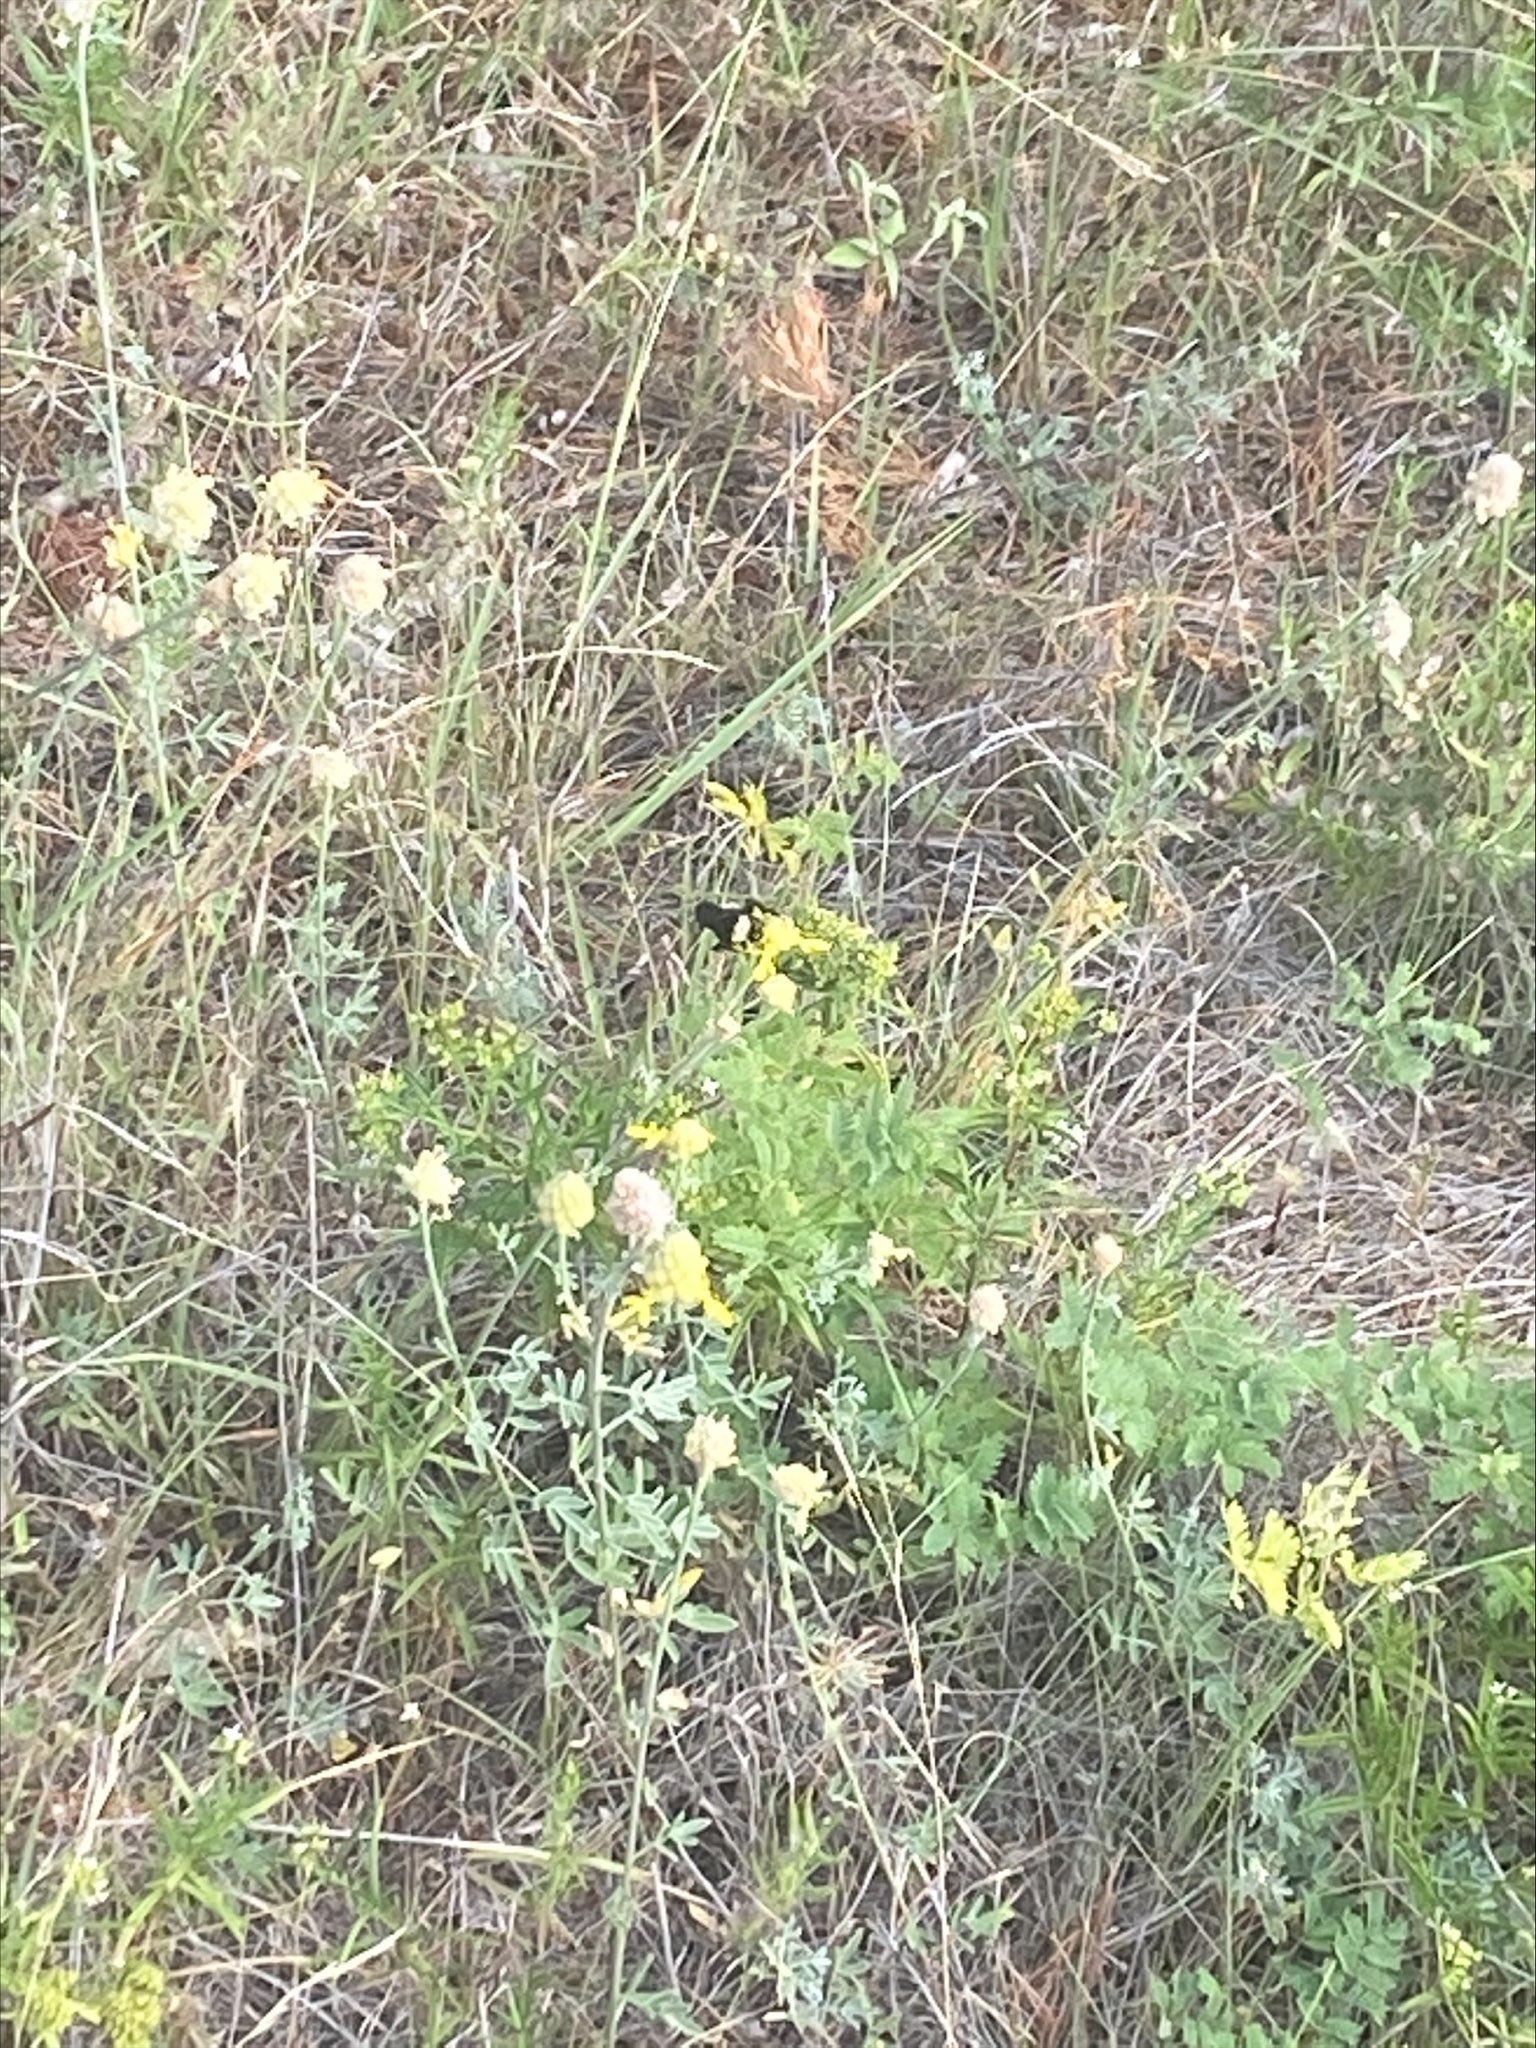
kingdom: Animalia
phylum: Arthropoda
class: Insecta
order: Hymenoptera
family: Apidae
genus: Bombus
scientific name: Bombus pensylvanicus
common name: Bumble bee
